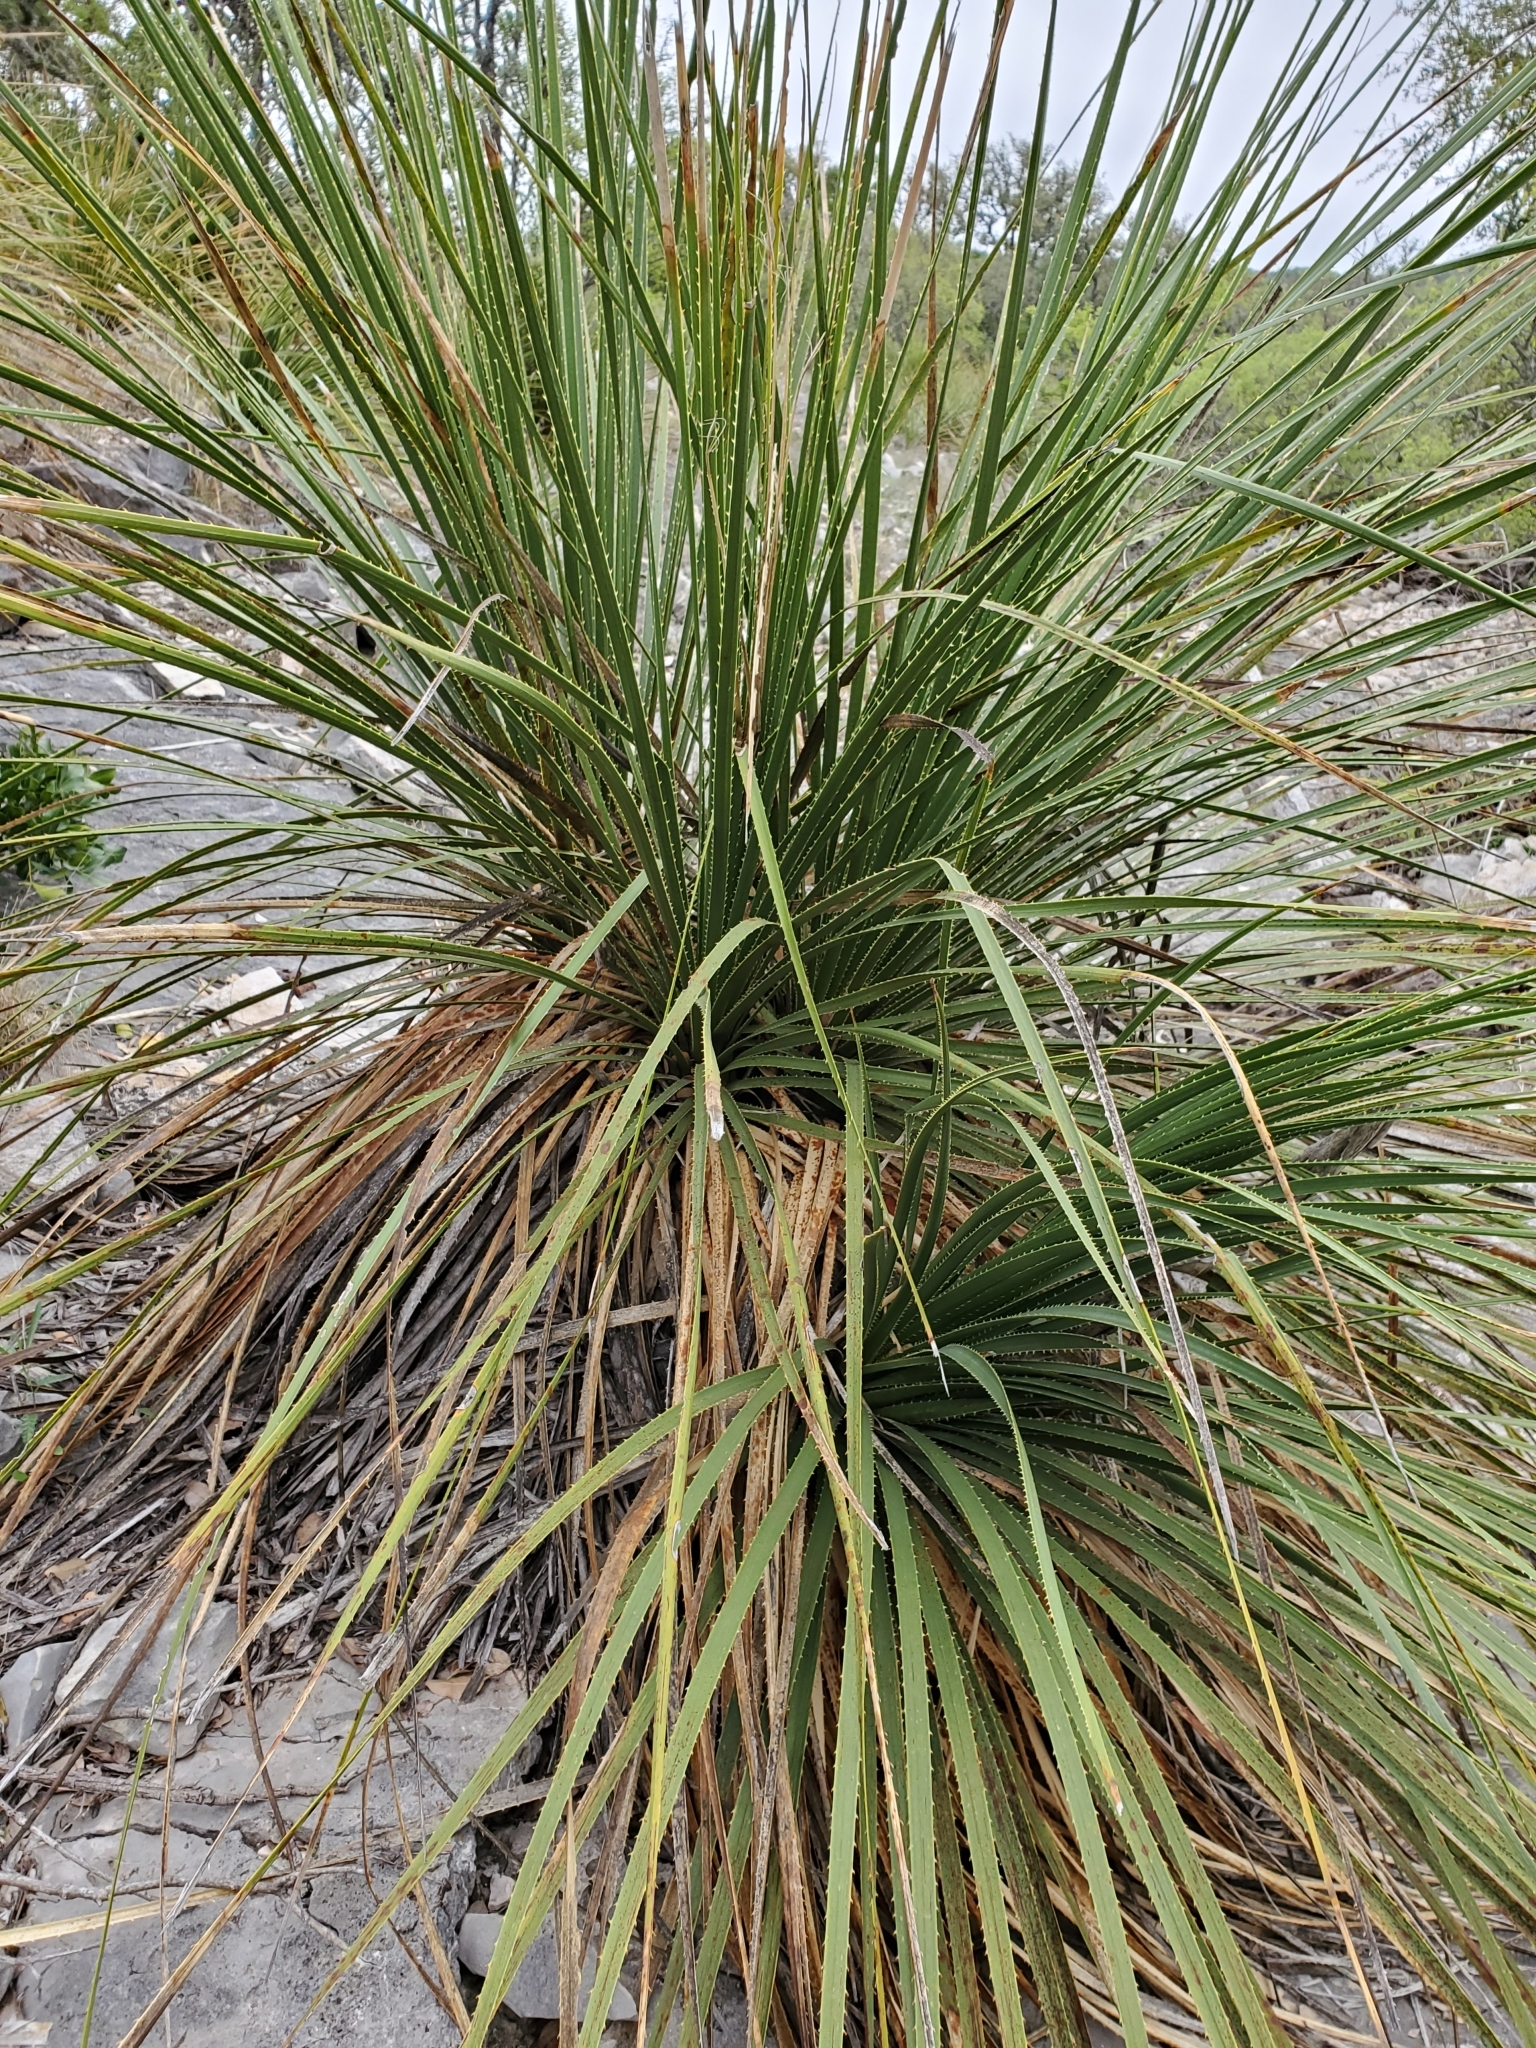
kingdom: Plantae
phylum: Tracheophyta
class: Liliopsida
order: Asparagales
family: Asparagaceae
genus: Dasylirion
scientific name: Dasylirion texanum
